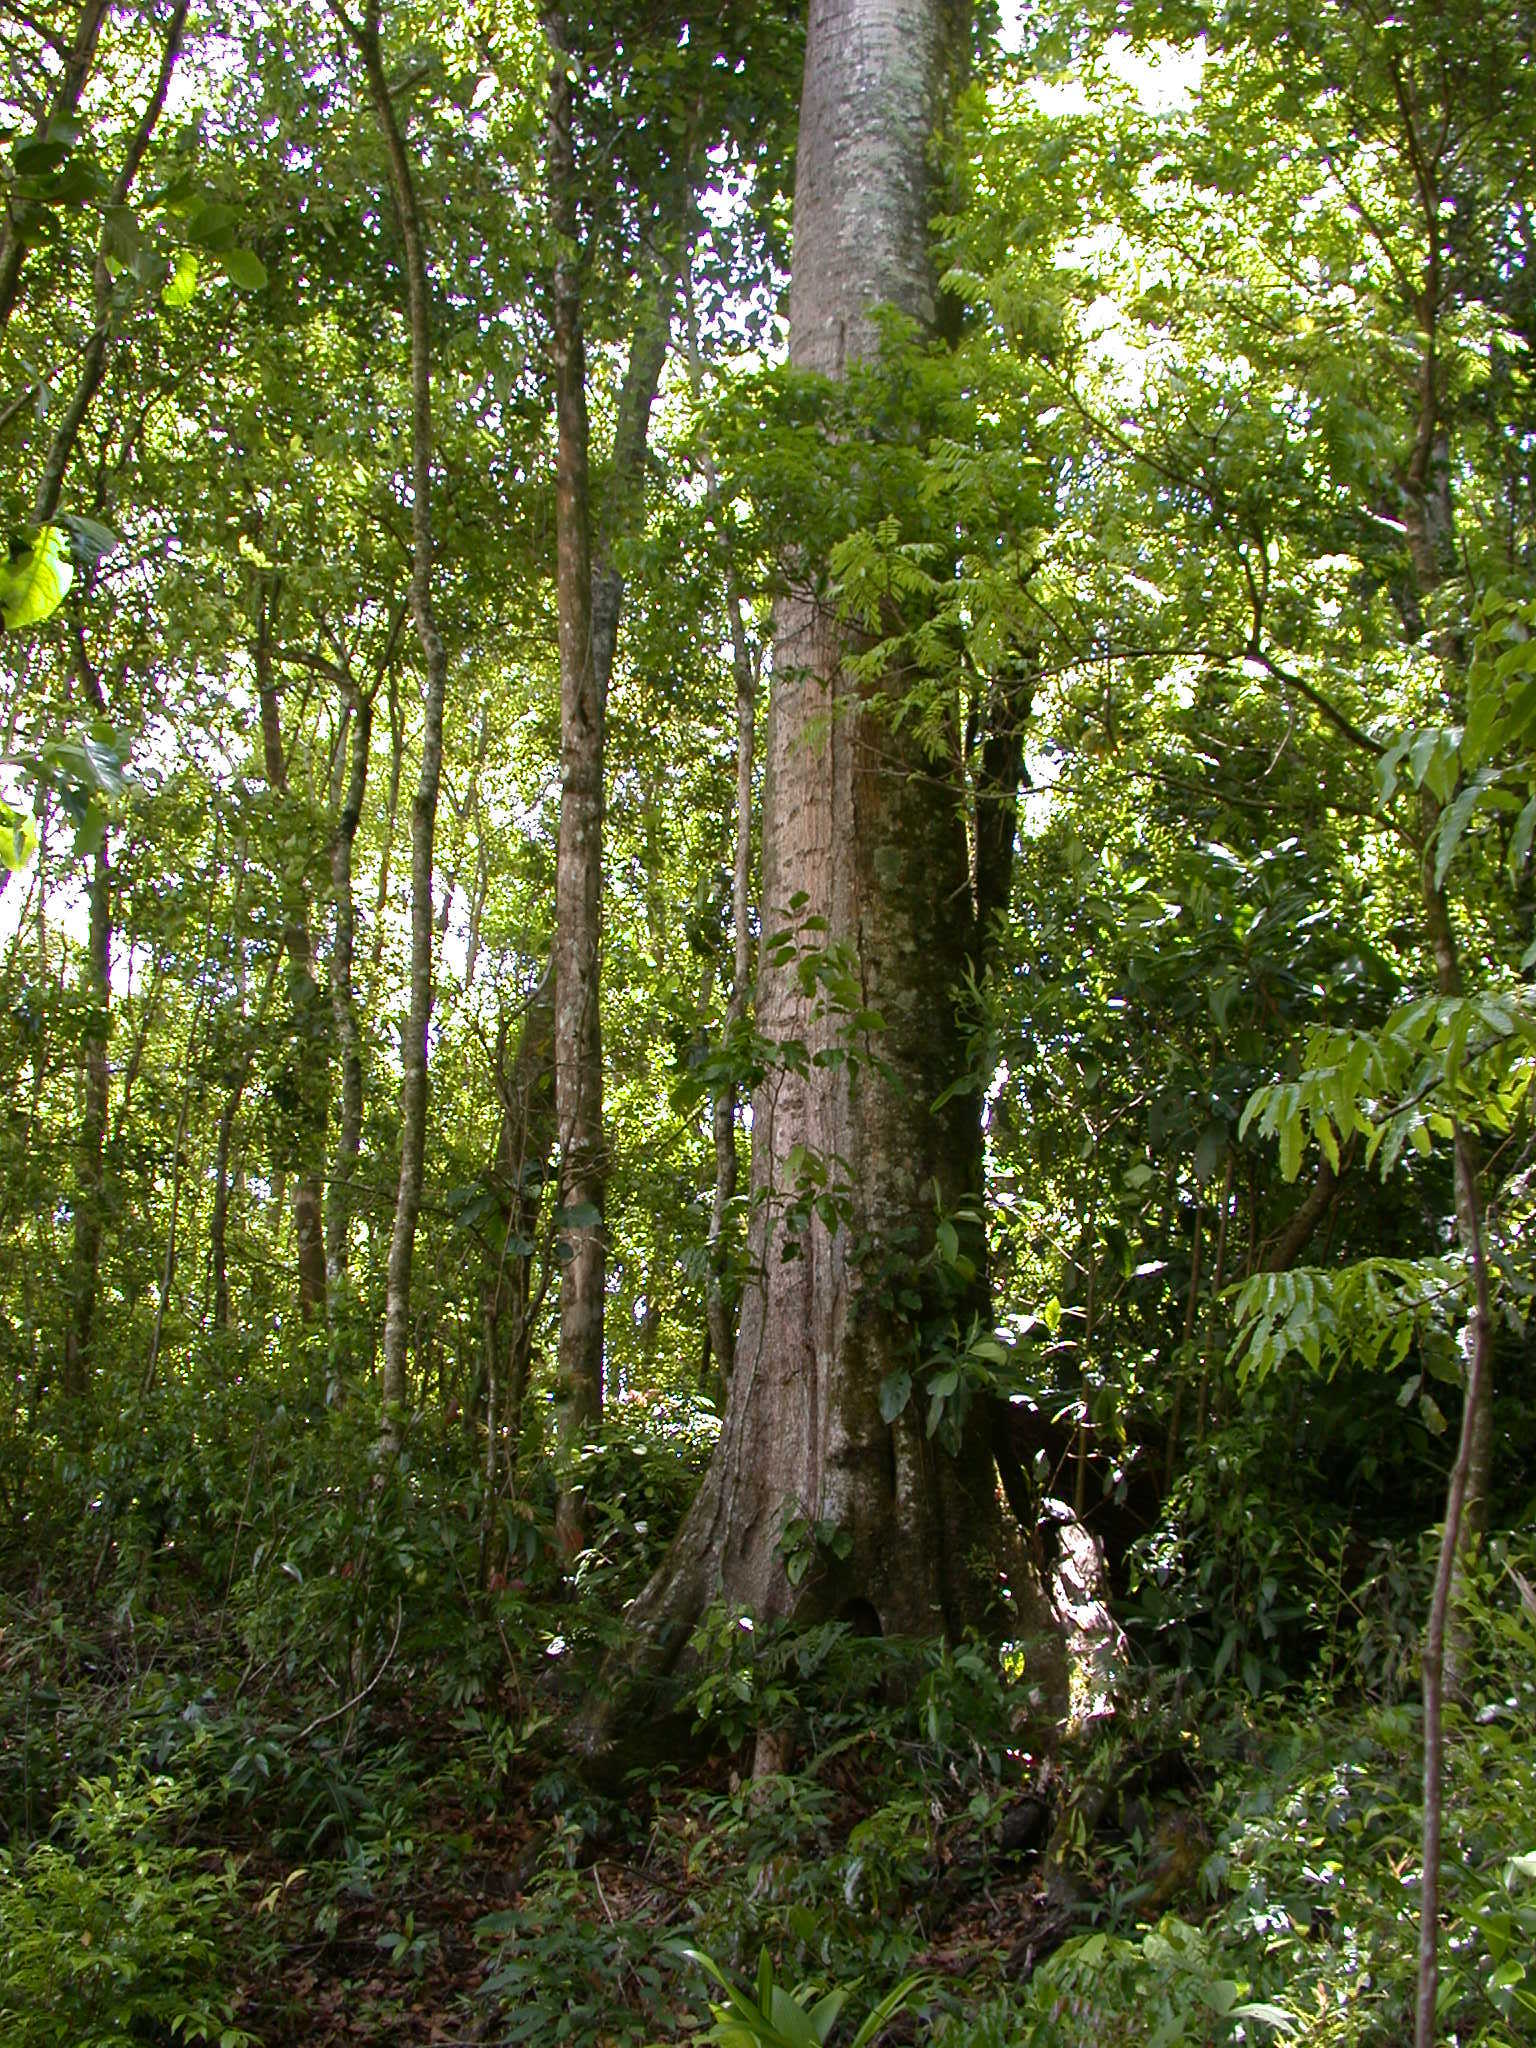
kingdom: Plantae
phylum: Tracheophyta
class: Magnoliopsida
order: Fagales
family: Fagaceae
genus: Quercus
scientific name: Quercus benthamii
